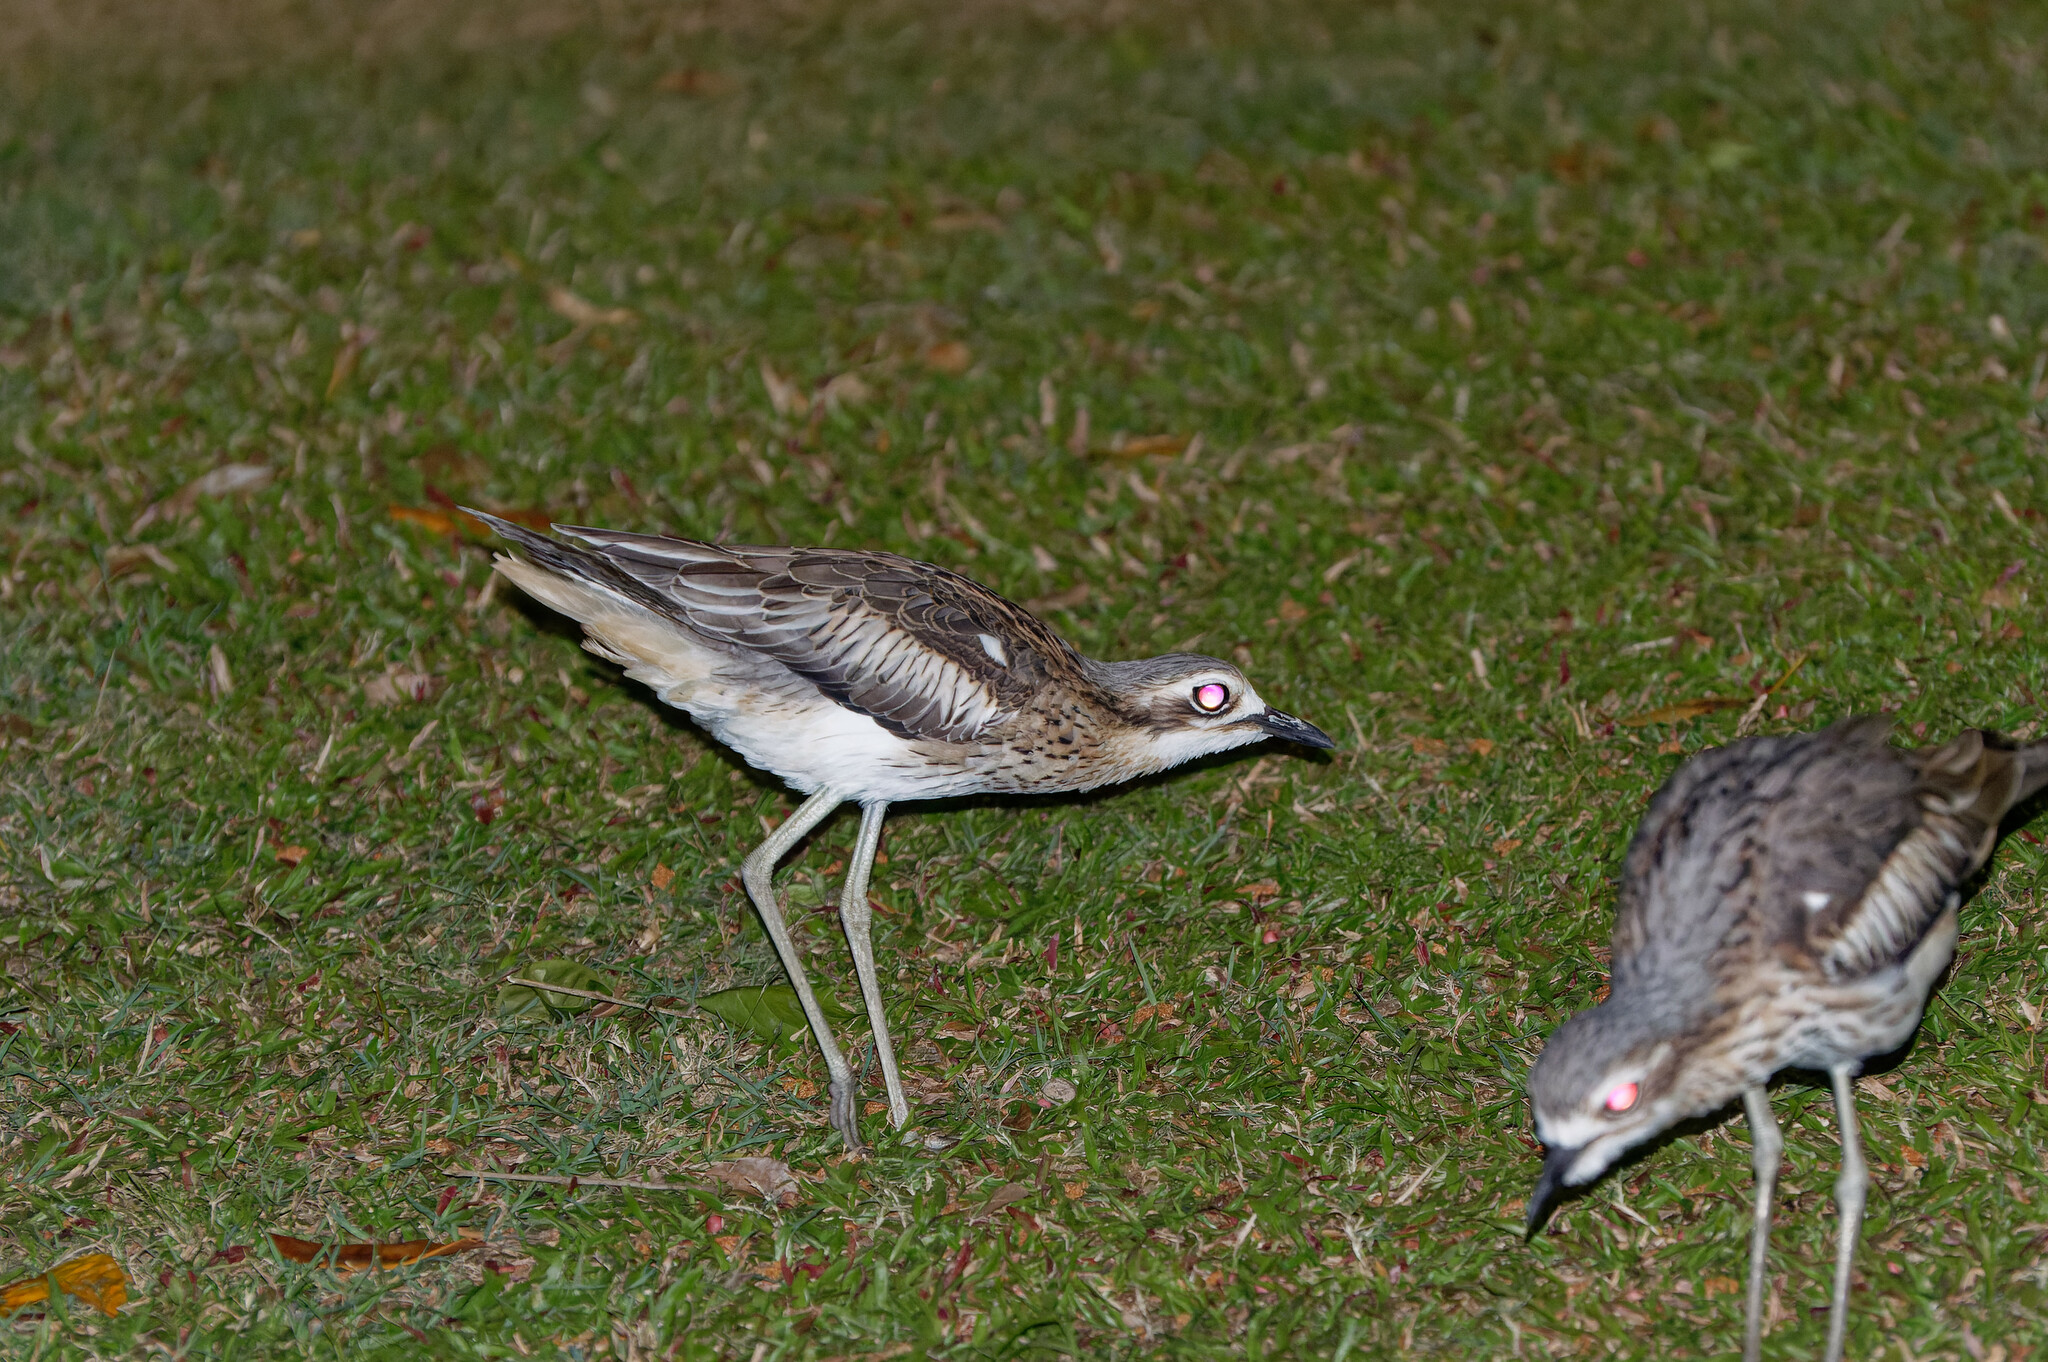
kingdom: Animalia
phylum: Chordata
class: Aves
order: Charadriiformes
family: Burhinidae
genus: Burhinus
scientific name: Burhinus grallarius
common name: Bush stone-curlew
